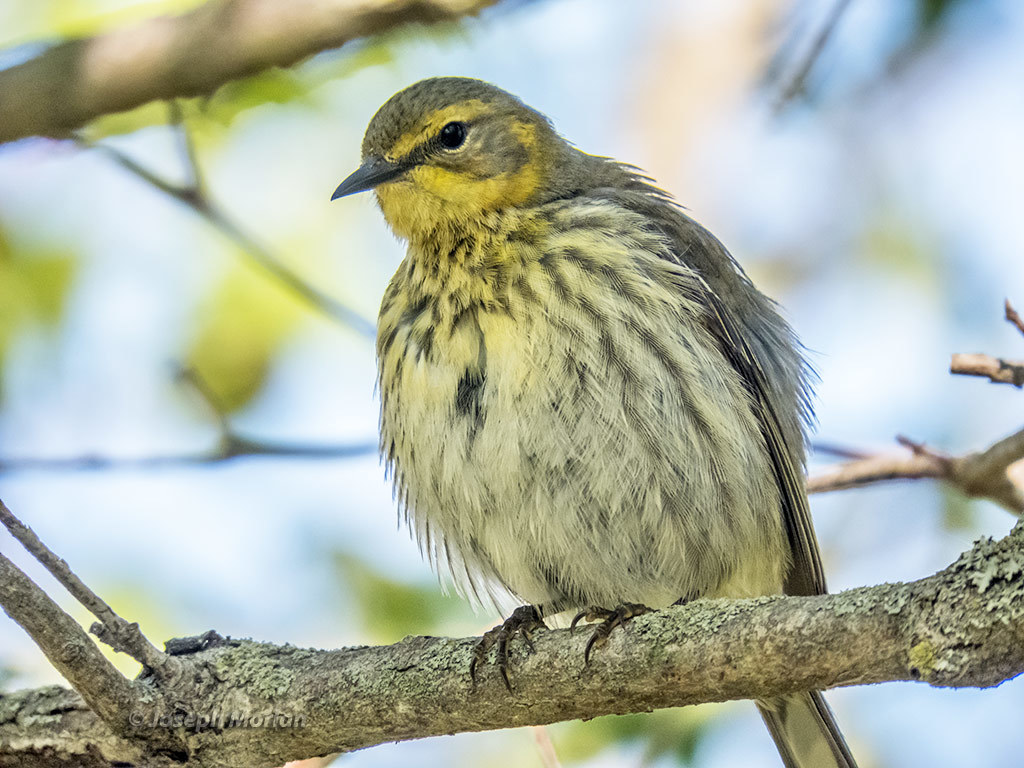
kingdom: Animalia
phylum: Chordata
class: Aves
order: Passeriformes
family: Parulidae
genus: Setophaga
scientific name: Setophaga tigrina
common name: Cape may warbler
